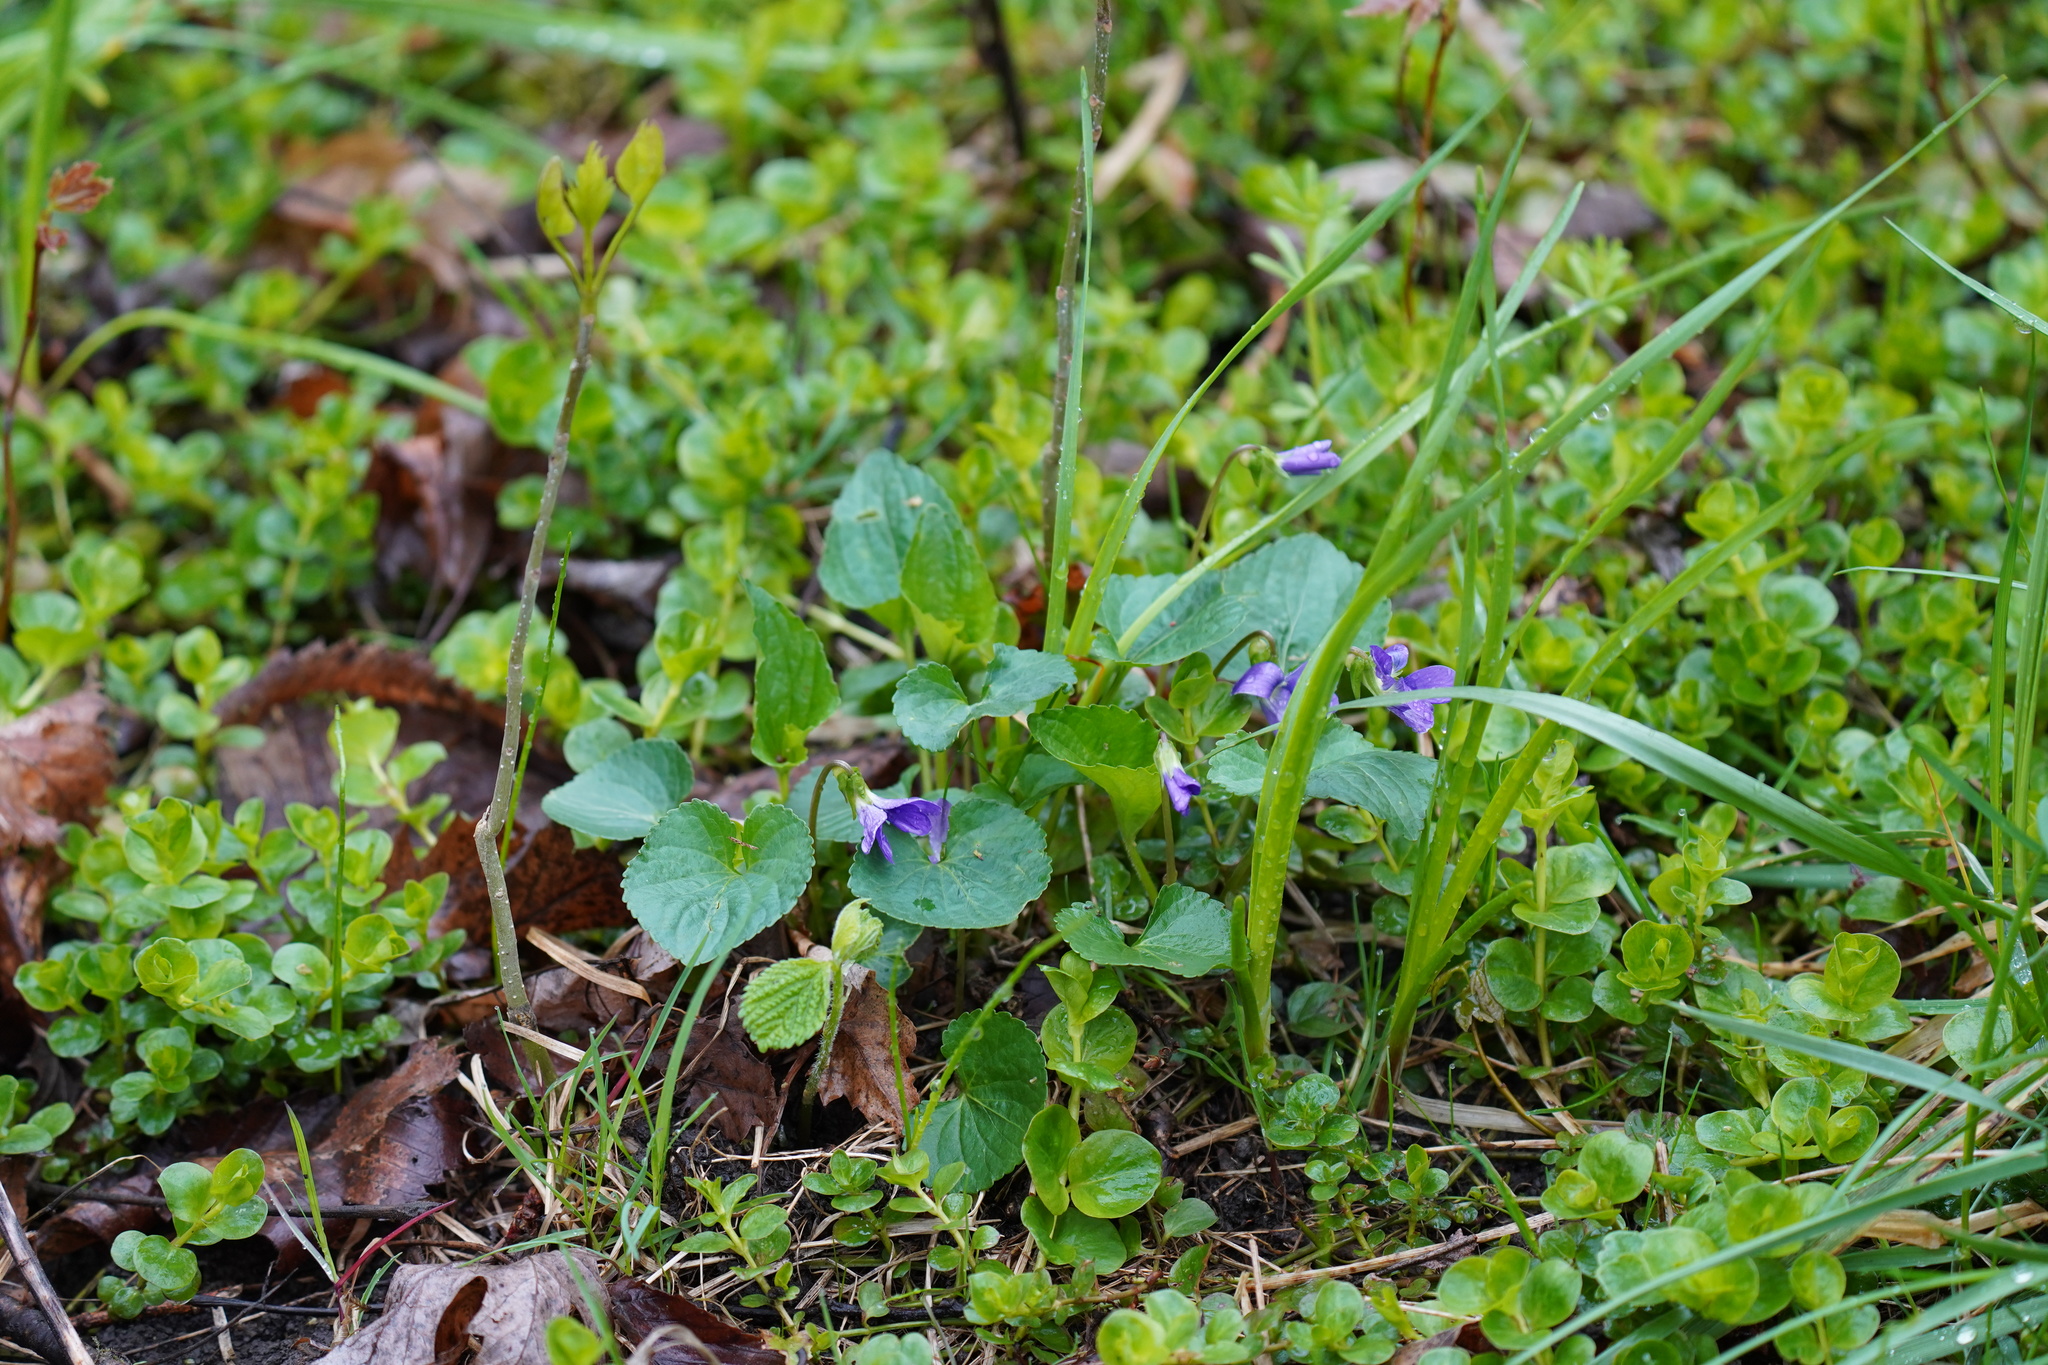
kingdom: Plantae
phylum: Tracheophyta
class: Magnoliopsida
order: Malpighiales
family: Violaceae
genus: Viola
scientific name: Viola sororia
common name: Dooryard violet
